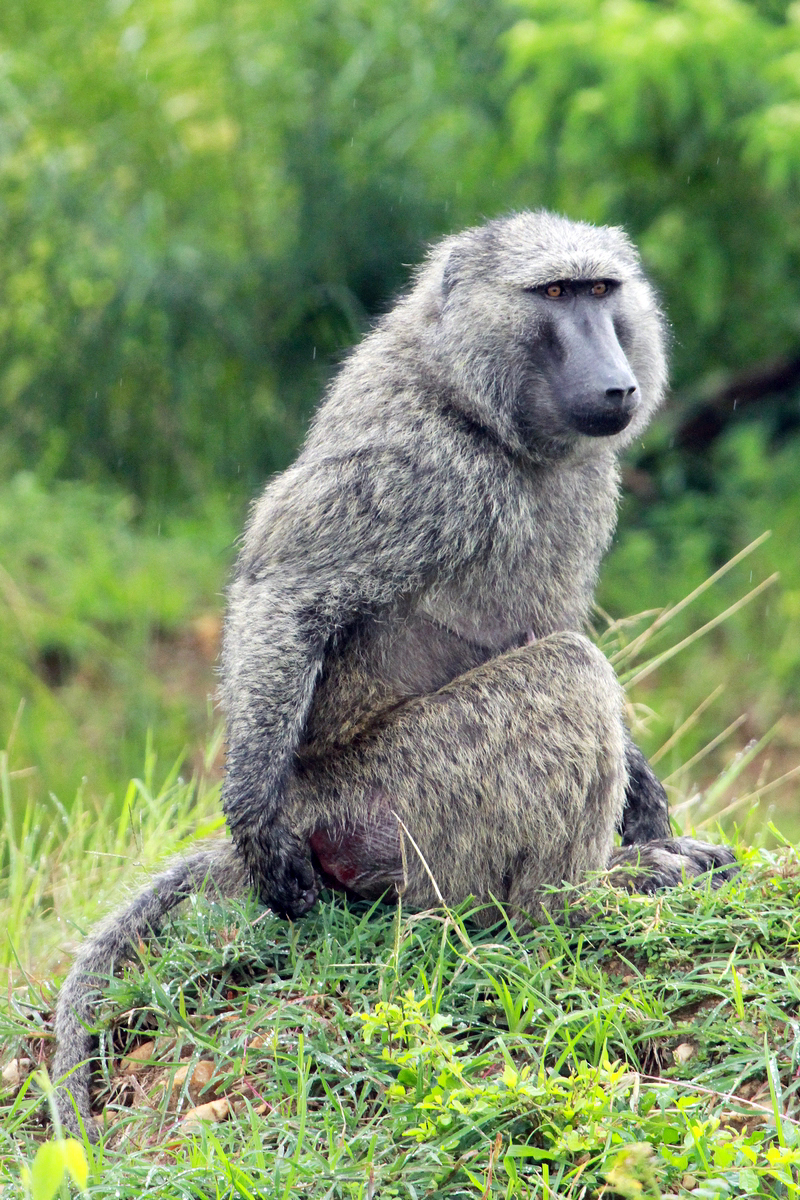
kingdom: Animalia
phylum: Chordata
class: Mammalia
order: Primates
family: Cercopithecidae
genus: Papio
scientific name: Papio anubis
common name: Olive baboon
